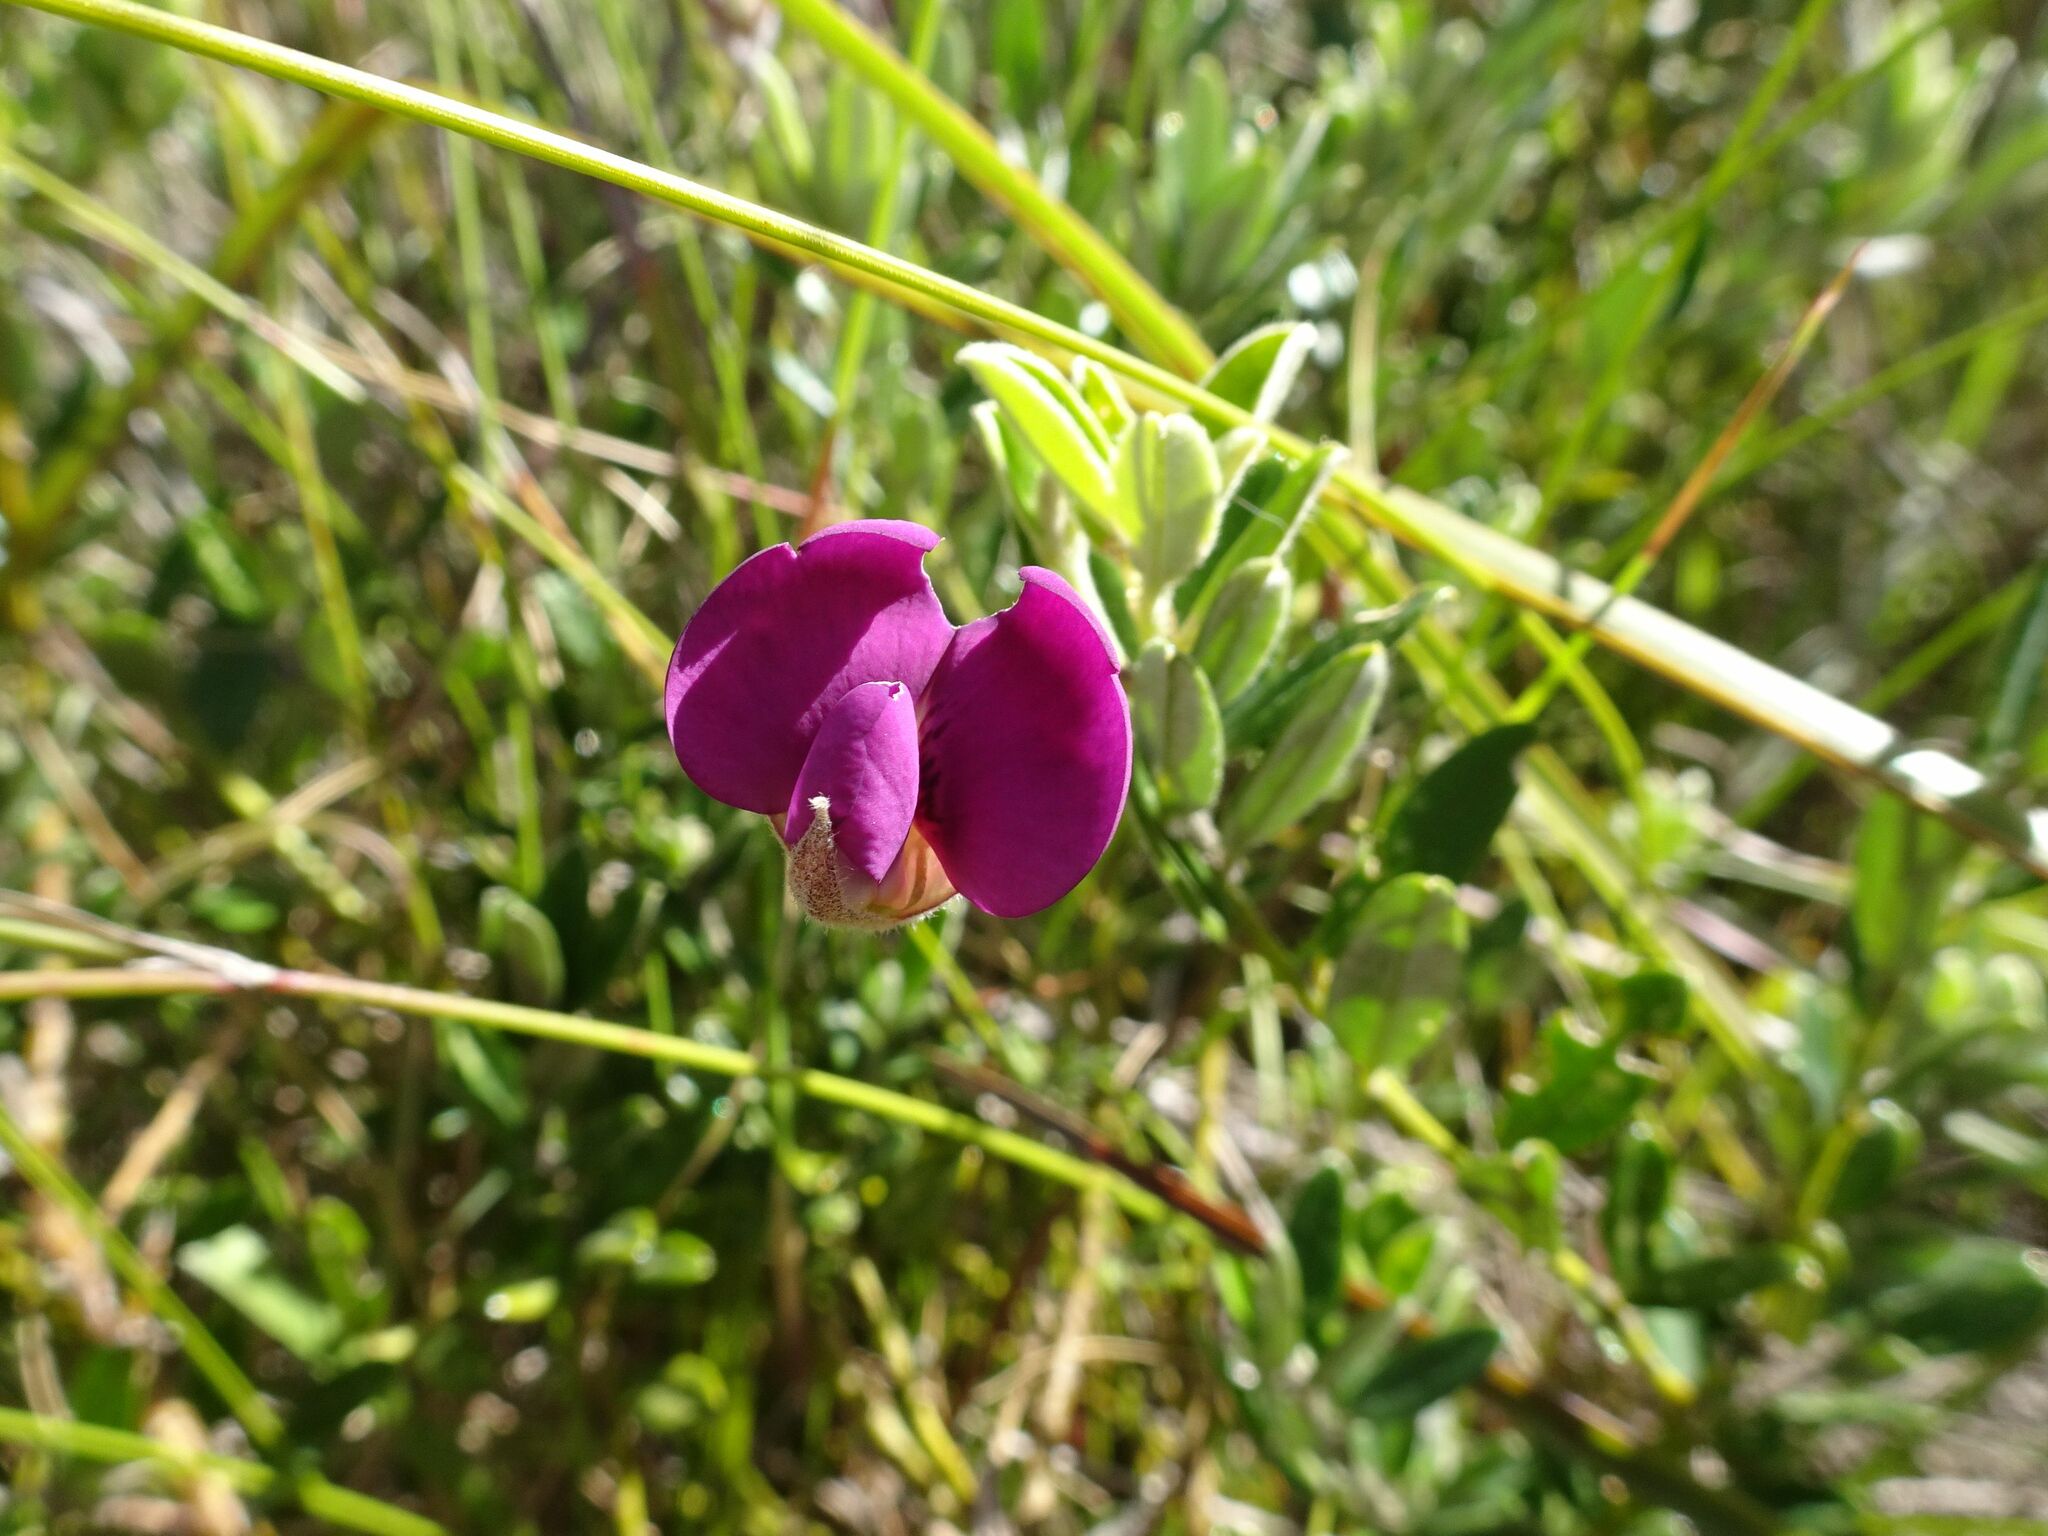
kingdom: Plantae
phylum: Tracheophyta
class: Magnoliopsida
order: Fabales
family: Fabaceae
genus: Podalyria
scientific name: Podalyria buxifolia
